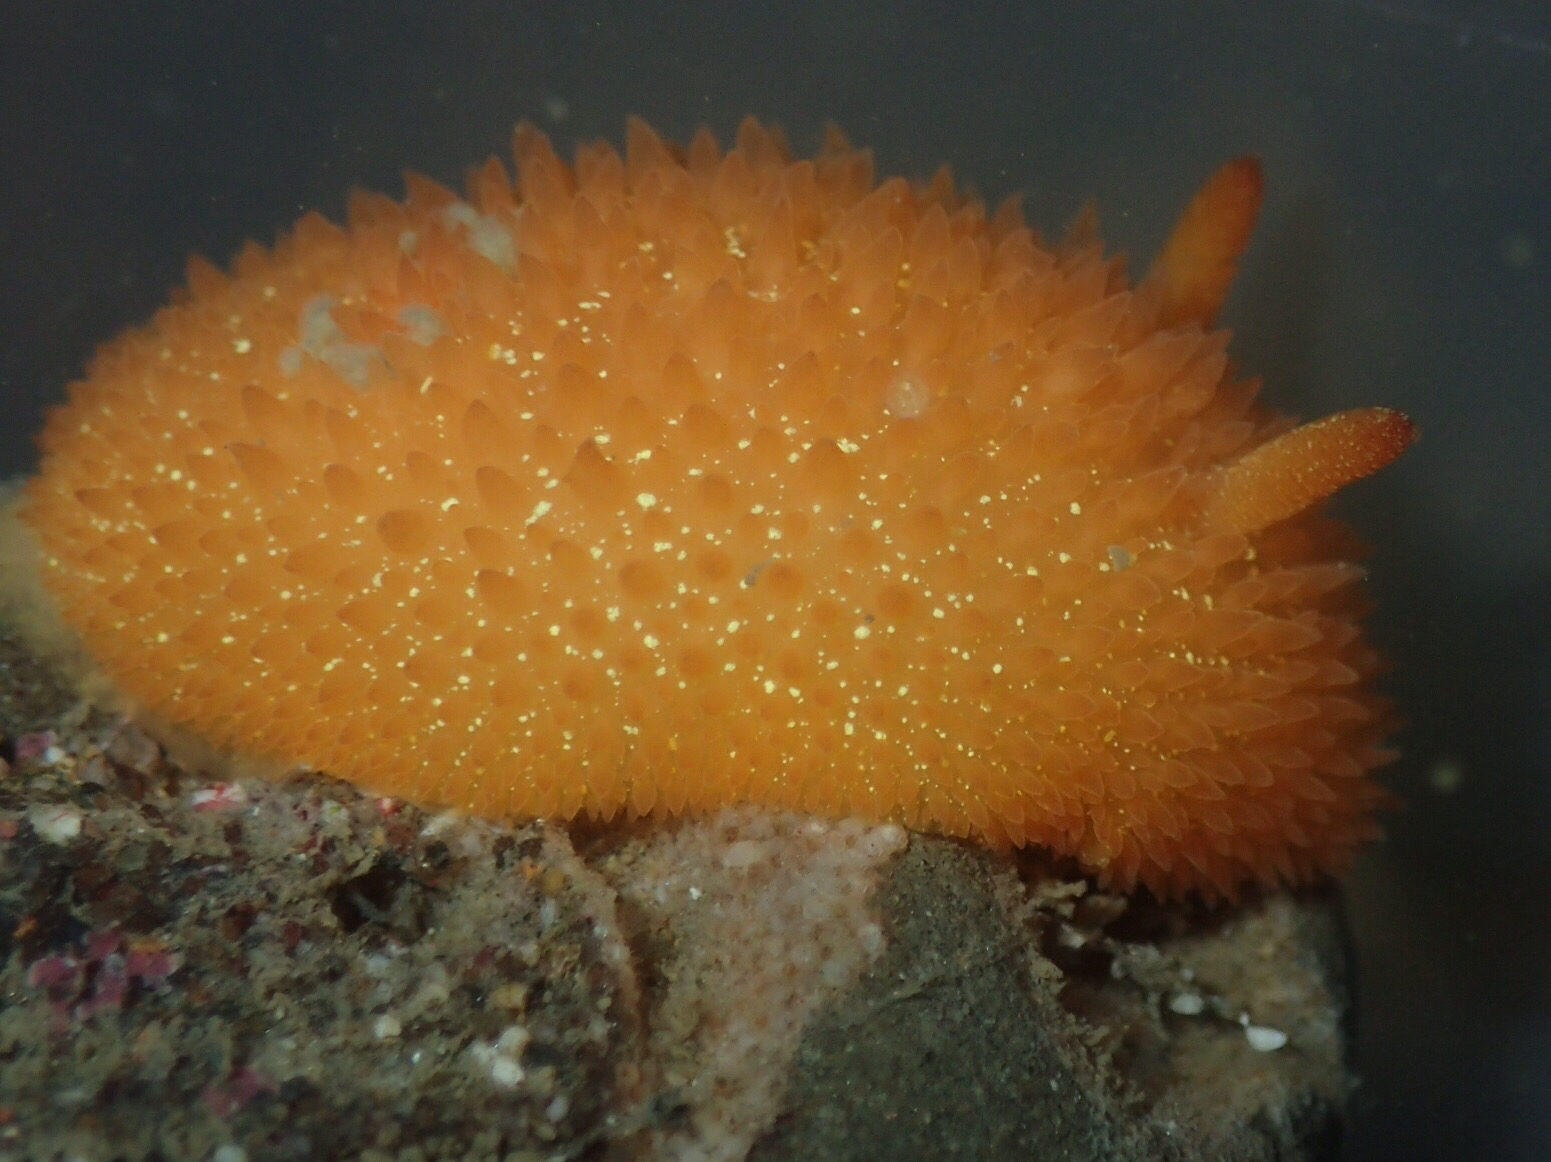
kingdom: Animalia
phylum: Mollusca
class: Gastropoda
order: Nudibranchia
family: Onchidorididae
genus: Acanthodoris
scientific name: Acanthodoris lutea
